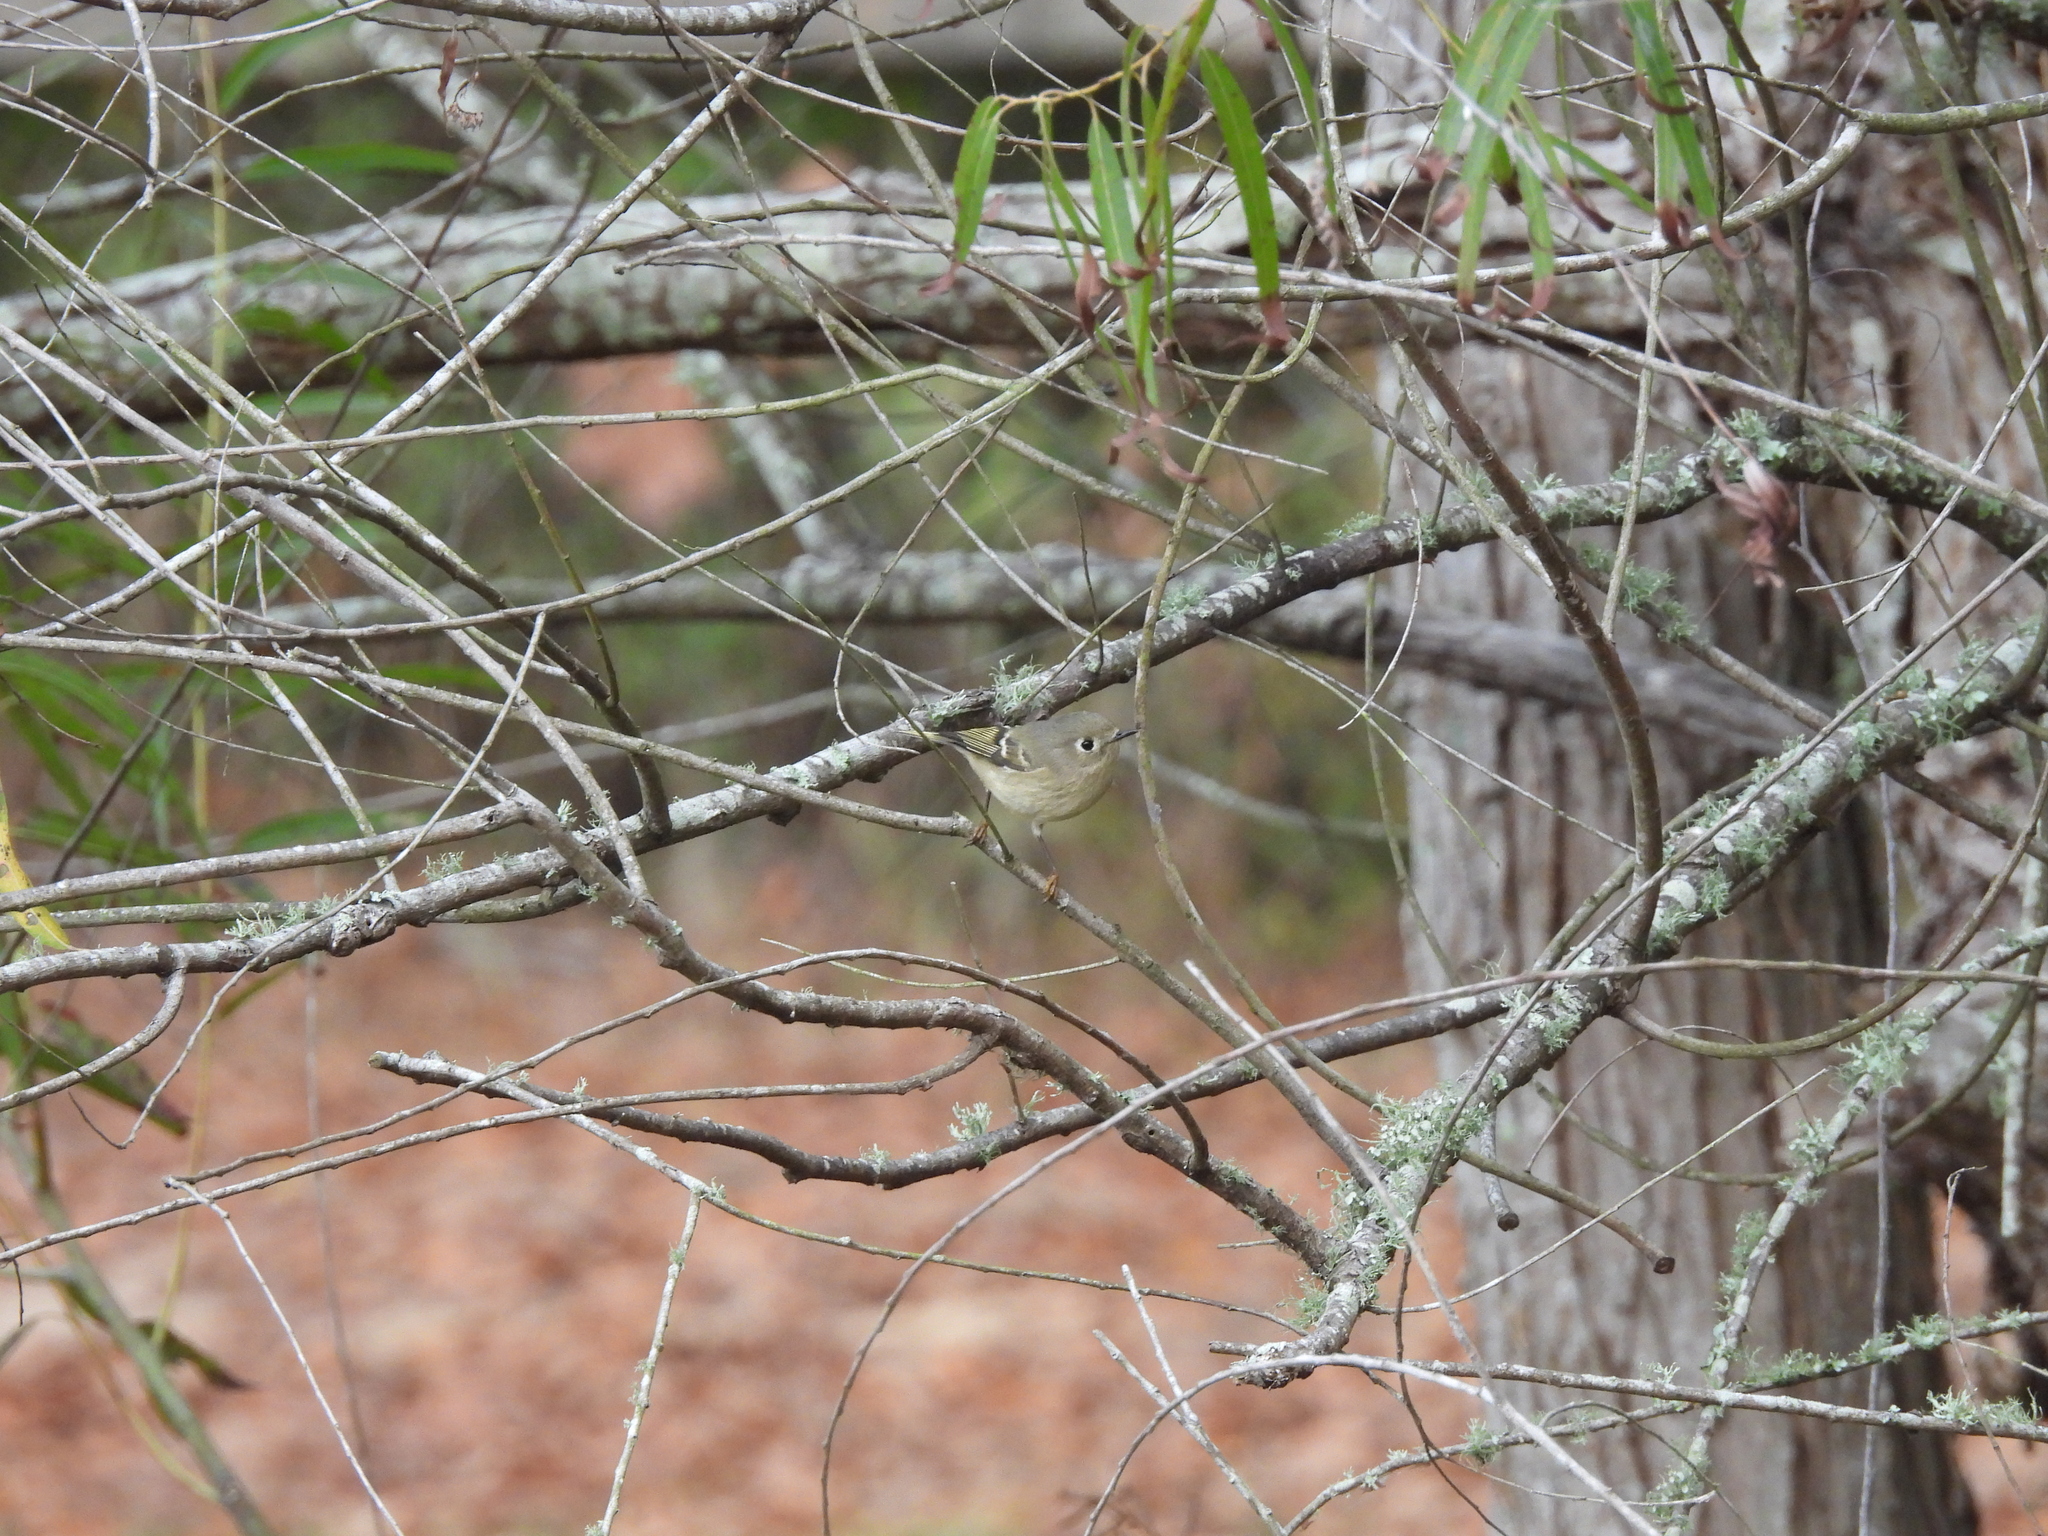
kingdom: Animalia
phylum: Chordata
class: Aves
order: Passeriformes
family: Regulidae
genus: Regulus
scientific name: Regulus calendula
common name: Ruby-crowned kinglet
